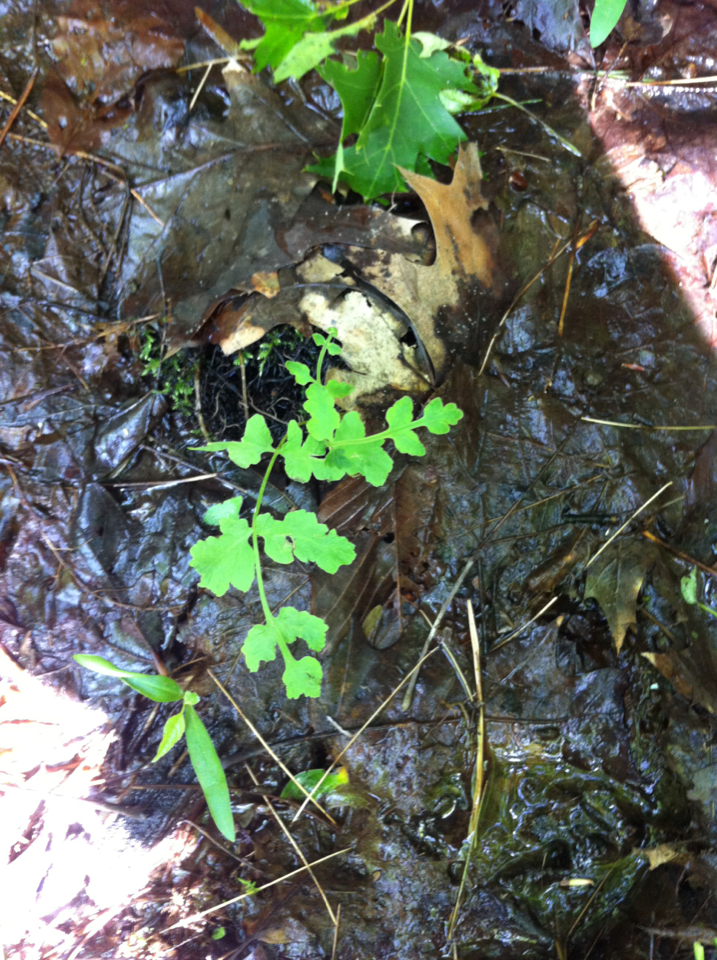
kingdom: Plantae
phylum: Tracheophyta
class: Polypodiopsida
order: Polypodiales
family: Onocleaceae
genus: Onoclea
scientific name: Onoclea sensibilis
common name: Sensitive fern
